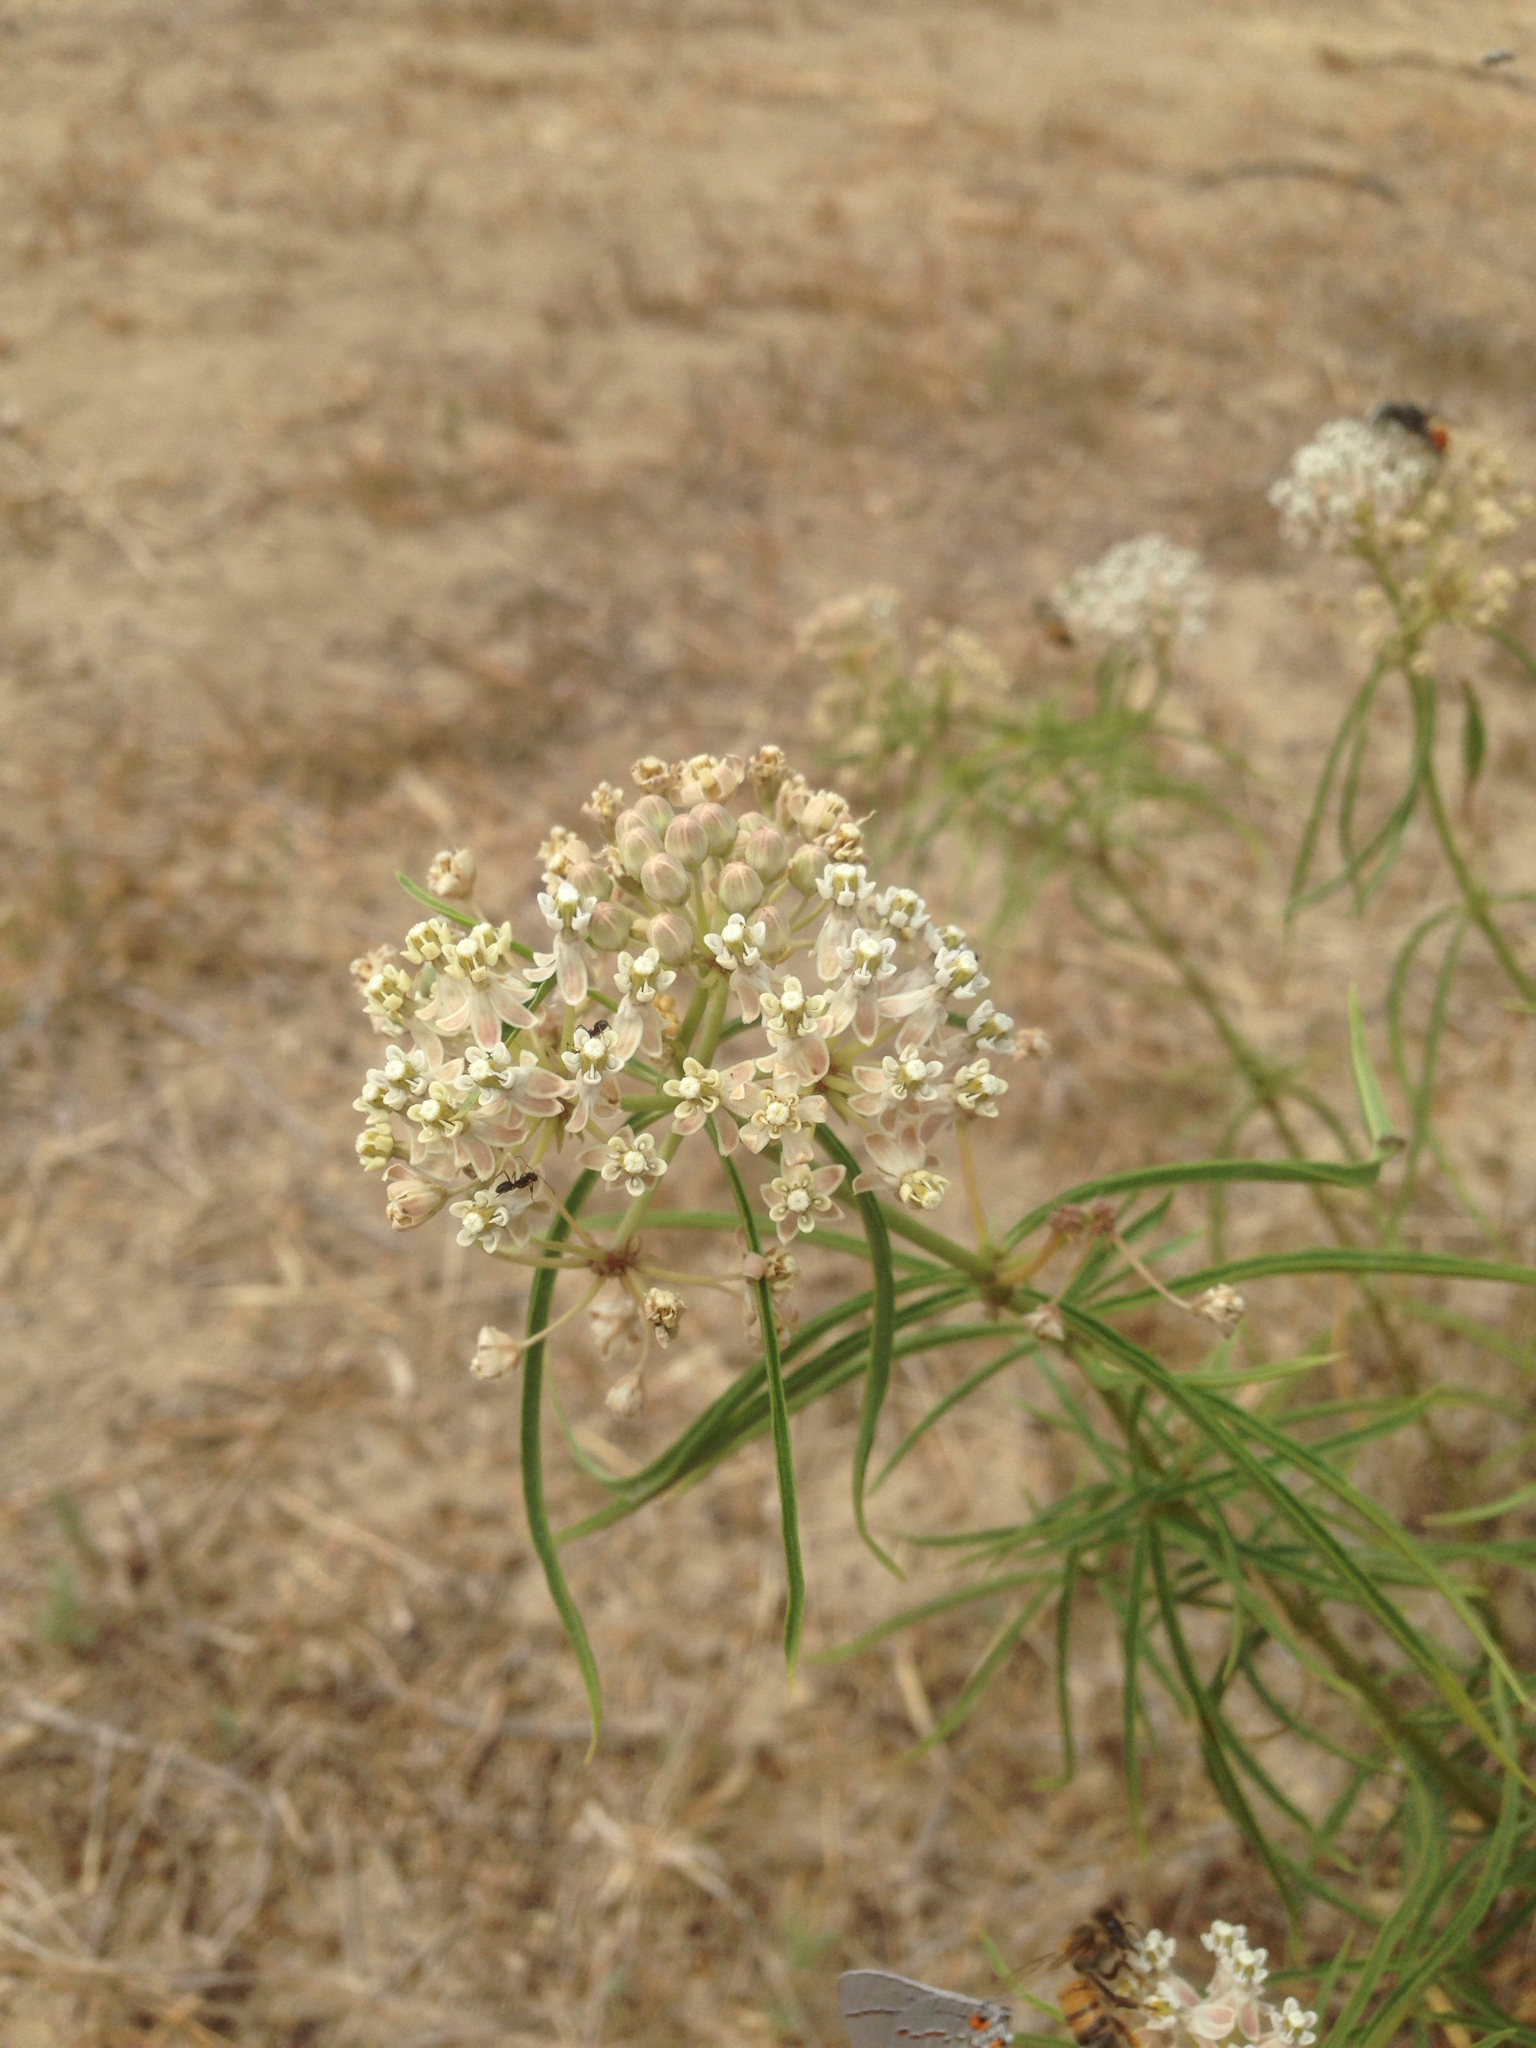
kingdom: Plantae
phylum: Tracheophyta
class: Magnoliopsida
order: Gentianales
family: Apocynaceae
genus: Asclepias
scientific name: Asclepias fascicularis
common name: Mexican milkweed
